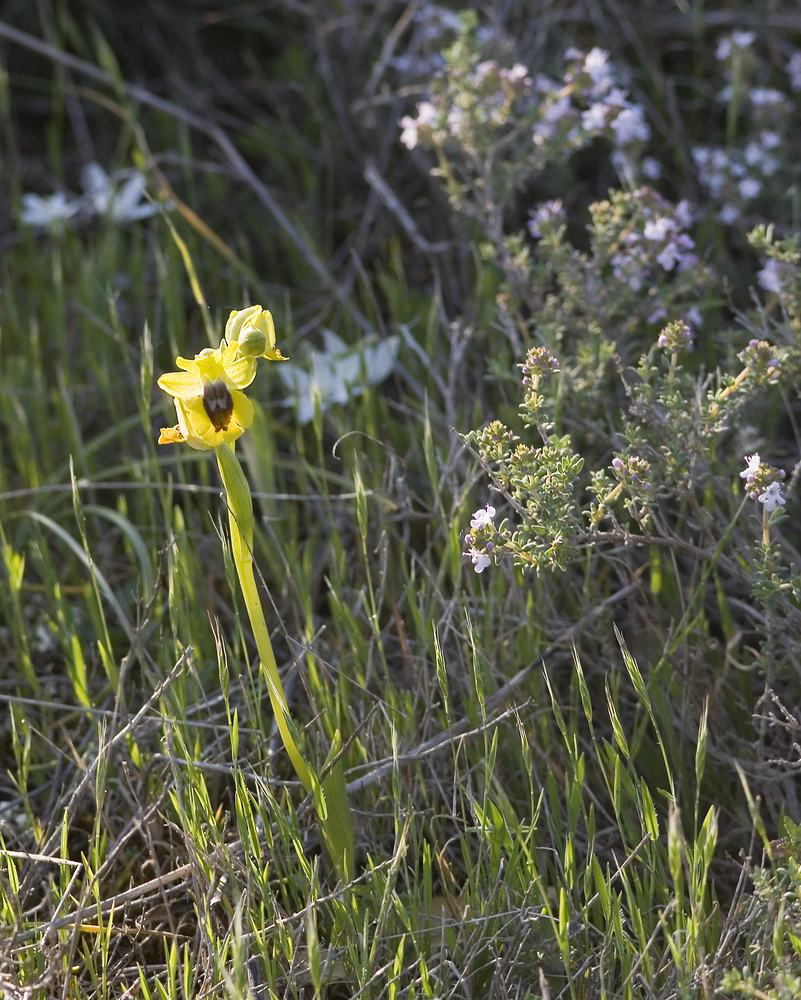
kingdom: Plantae
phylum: Tracheophyta
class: Liliopsida
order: Asparagales
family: Orchidaceae
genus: Ophrys
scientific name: Ophrys lutea
